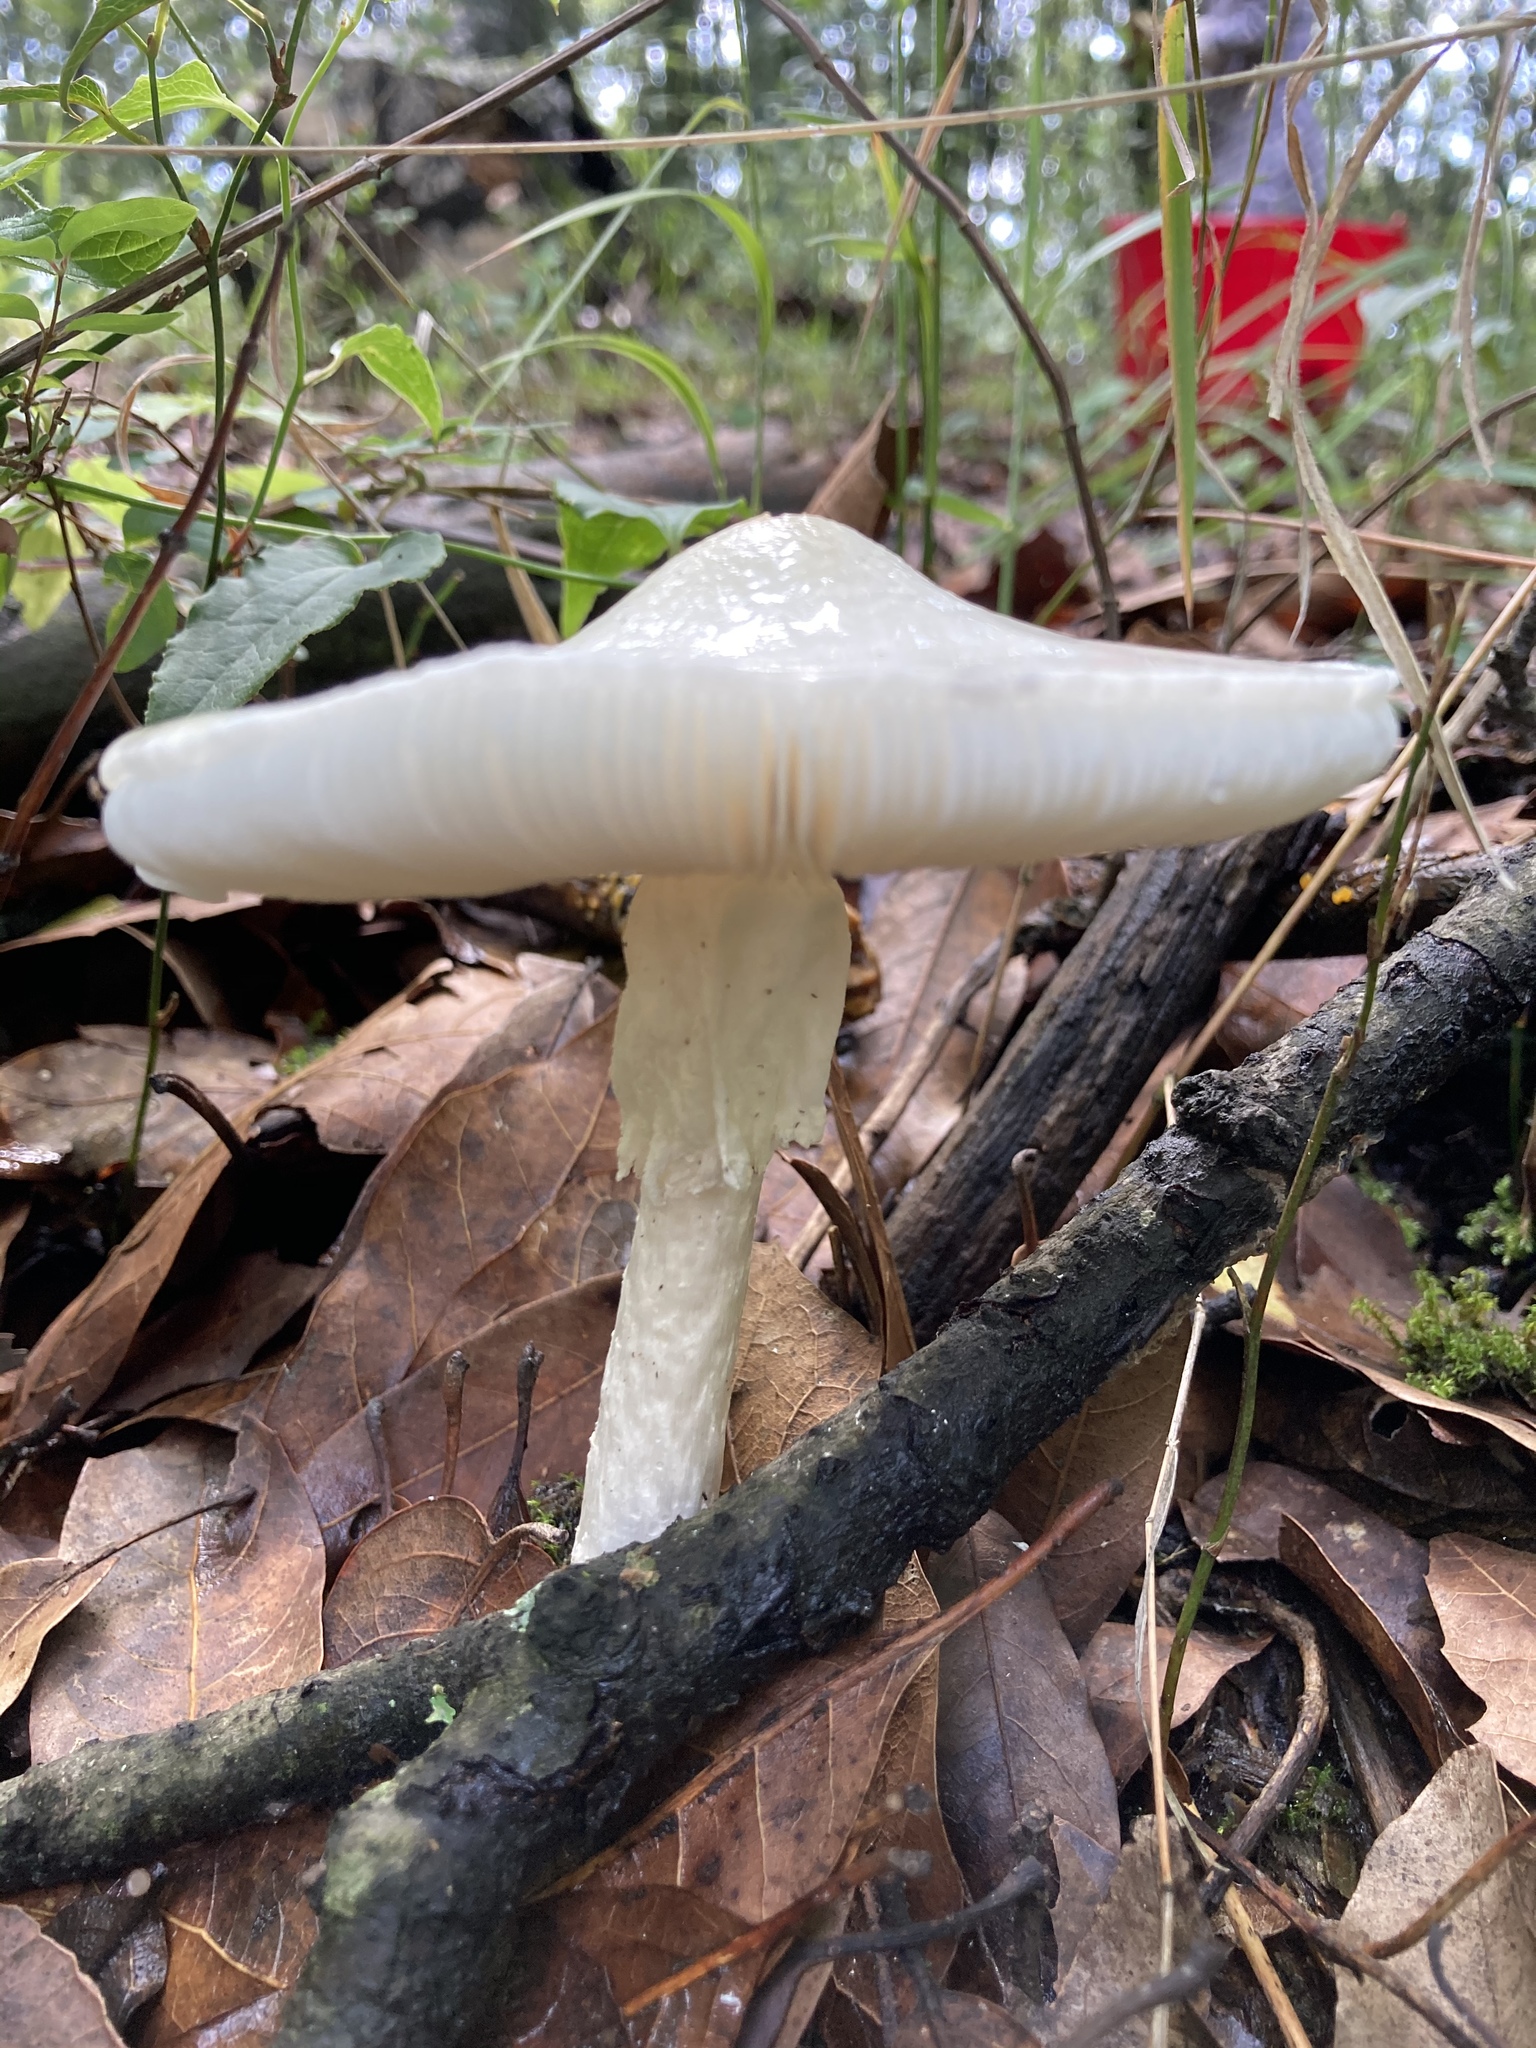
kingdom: Fungi
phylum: Basidiomycota
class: Agaricomycetes
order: Agaricales
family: Amanitaceae
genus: Amanita
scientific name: Amanita bisporigera
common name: Eastern north american destroying angel
